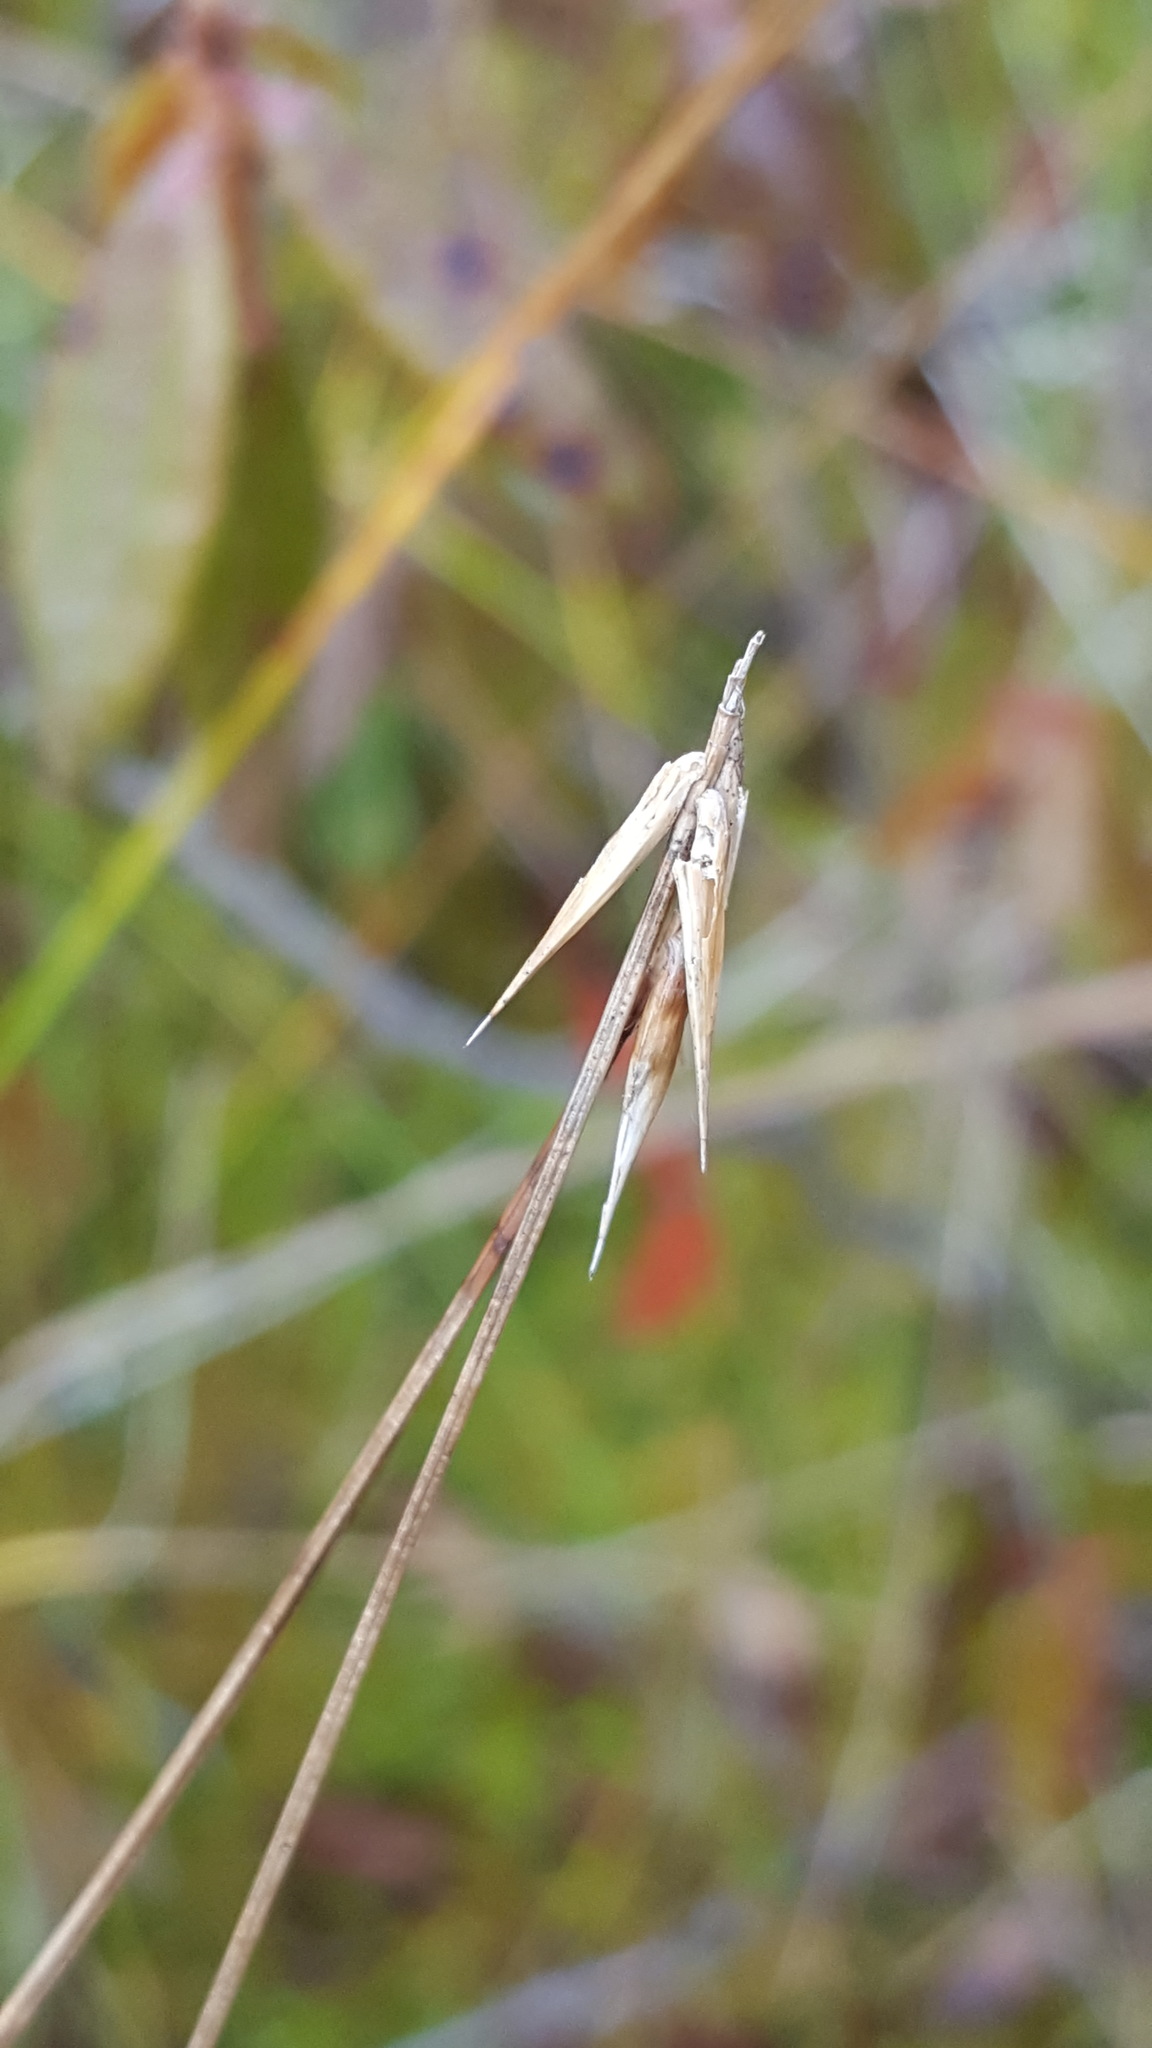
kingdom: Plantae
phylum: Tracheophyta
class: Liliopsida
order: Poales
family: Cyperaceae
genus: Carex
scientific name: Carex pauciflora
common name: Few-flowered sedge
